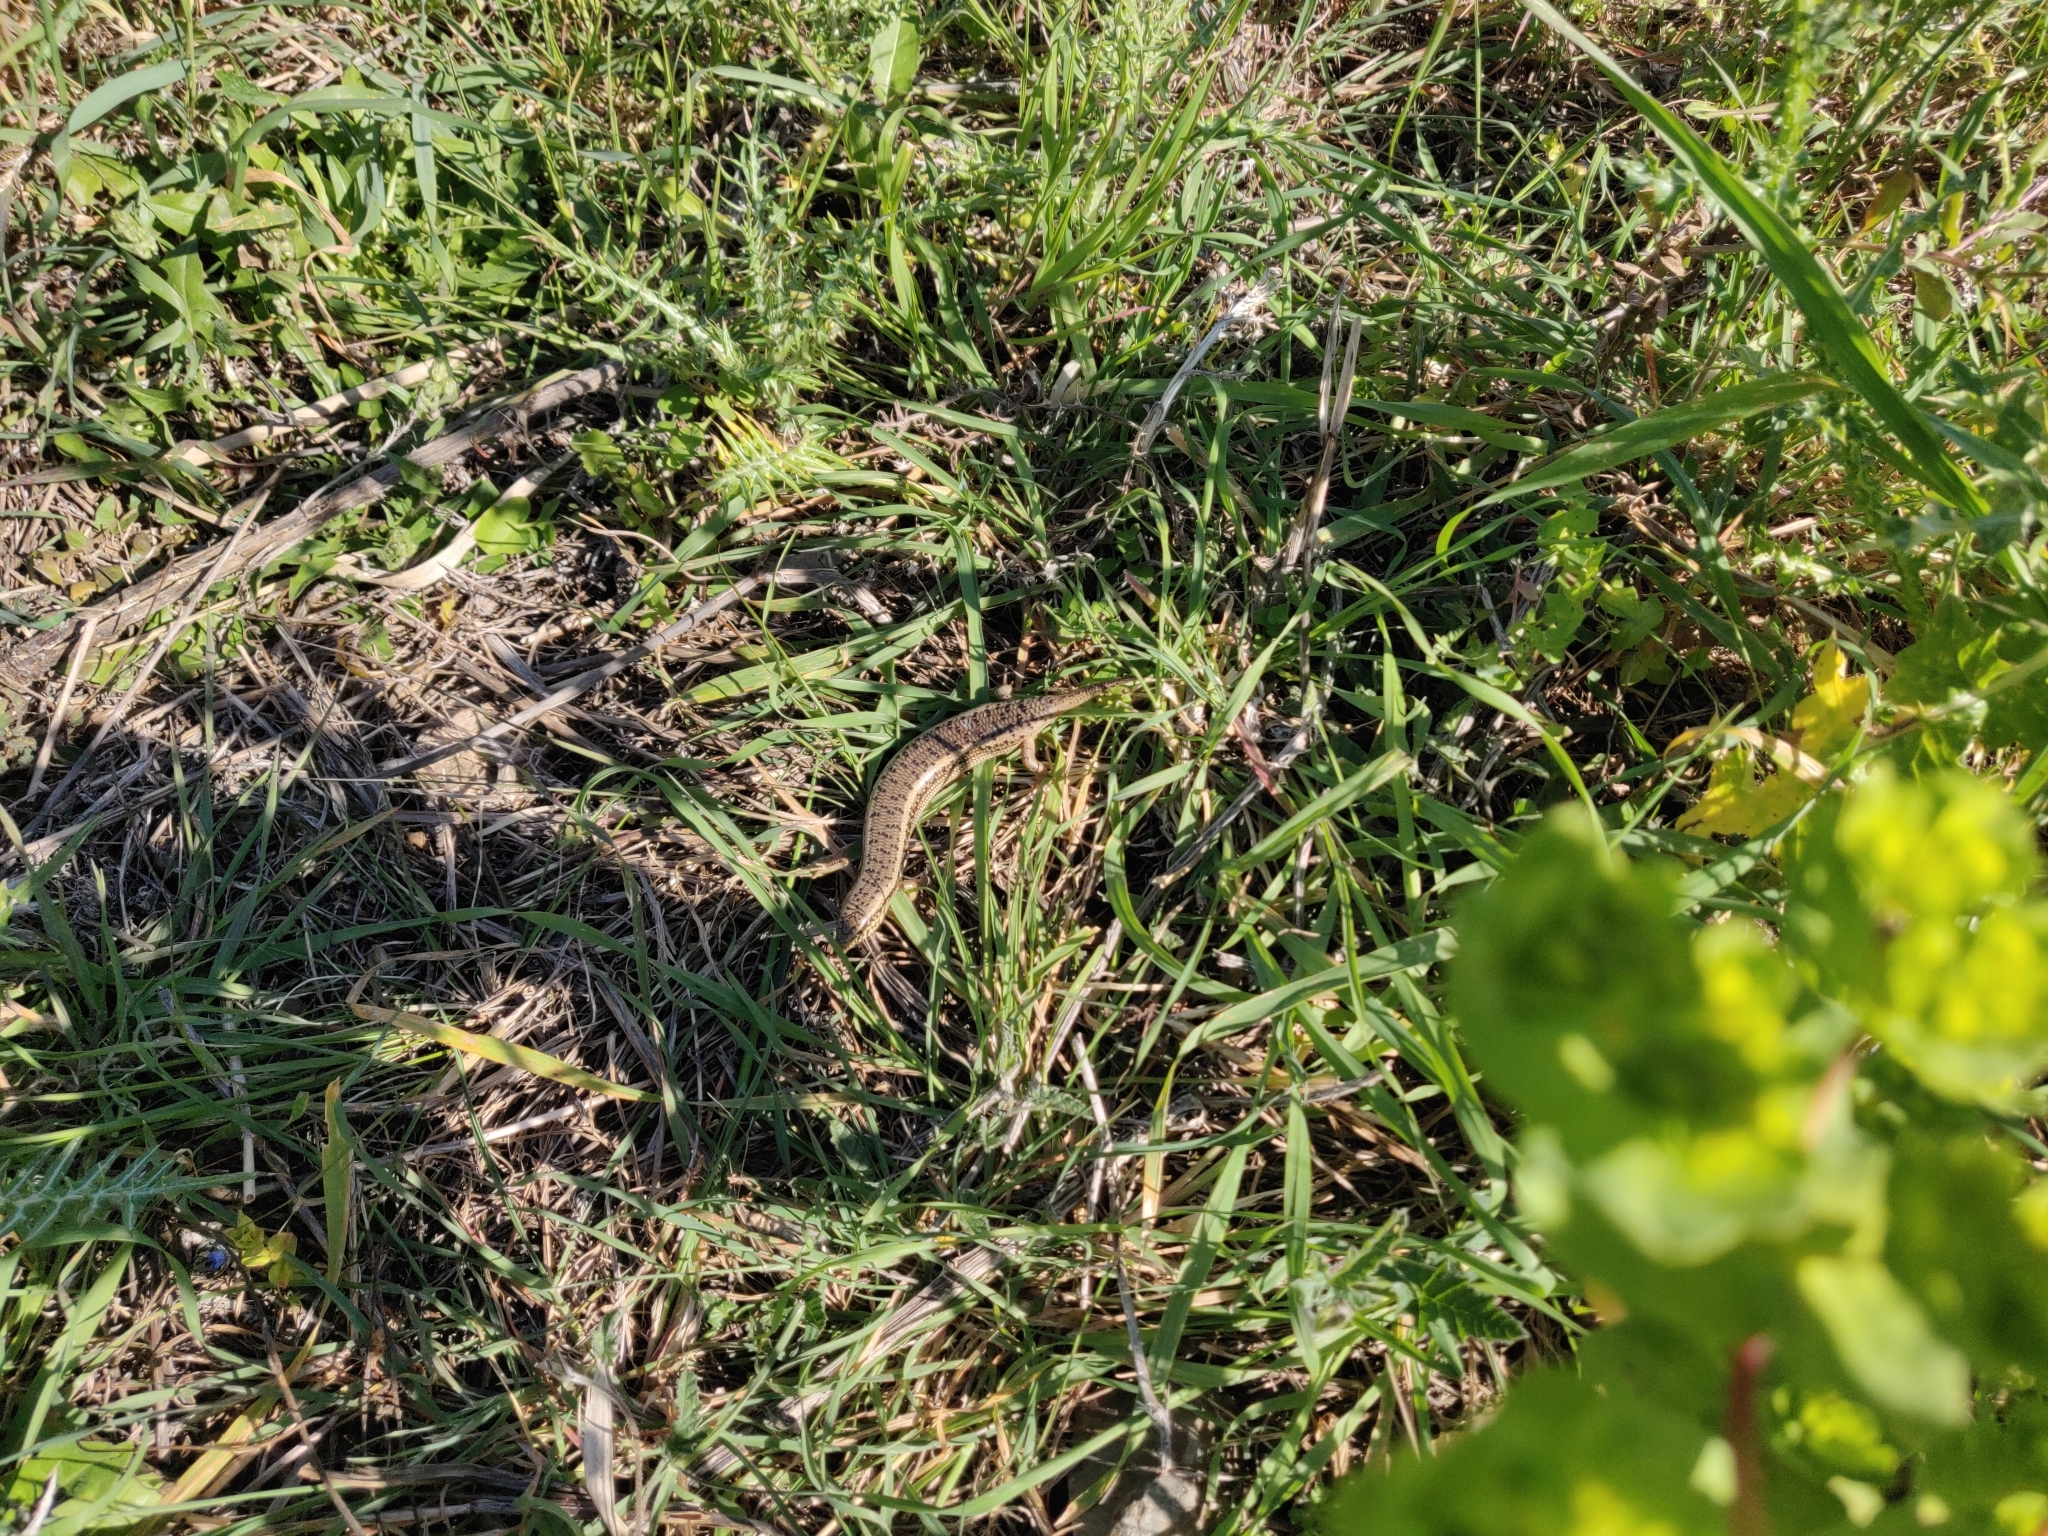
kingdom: Animalia
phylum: Chordata
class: Squamata
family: Scincidae
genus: Chalcides
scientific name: Chalcides ocellatus
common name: Ocellated skink
